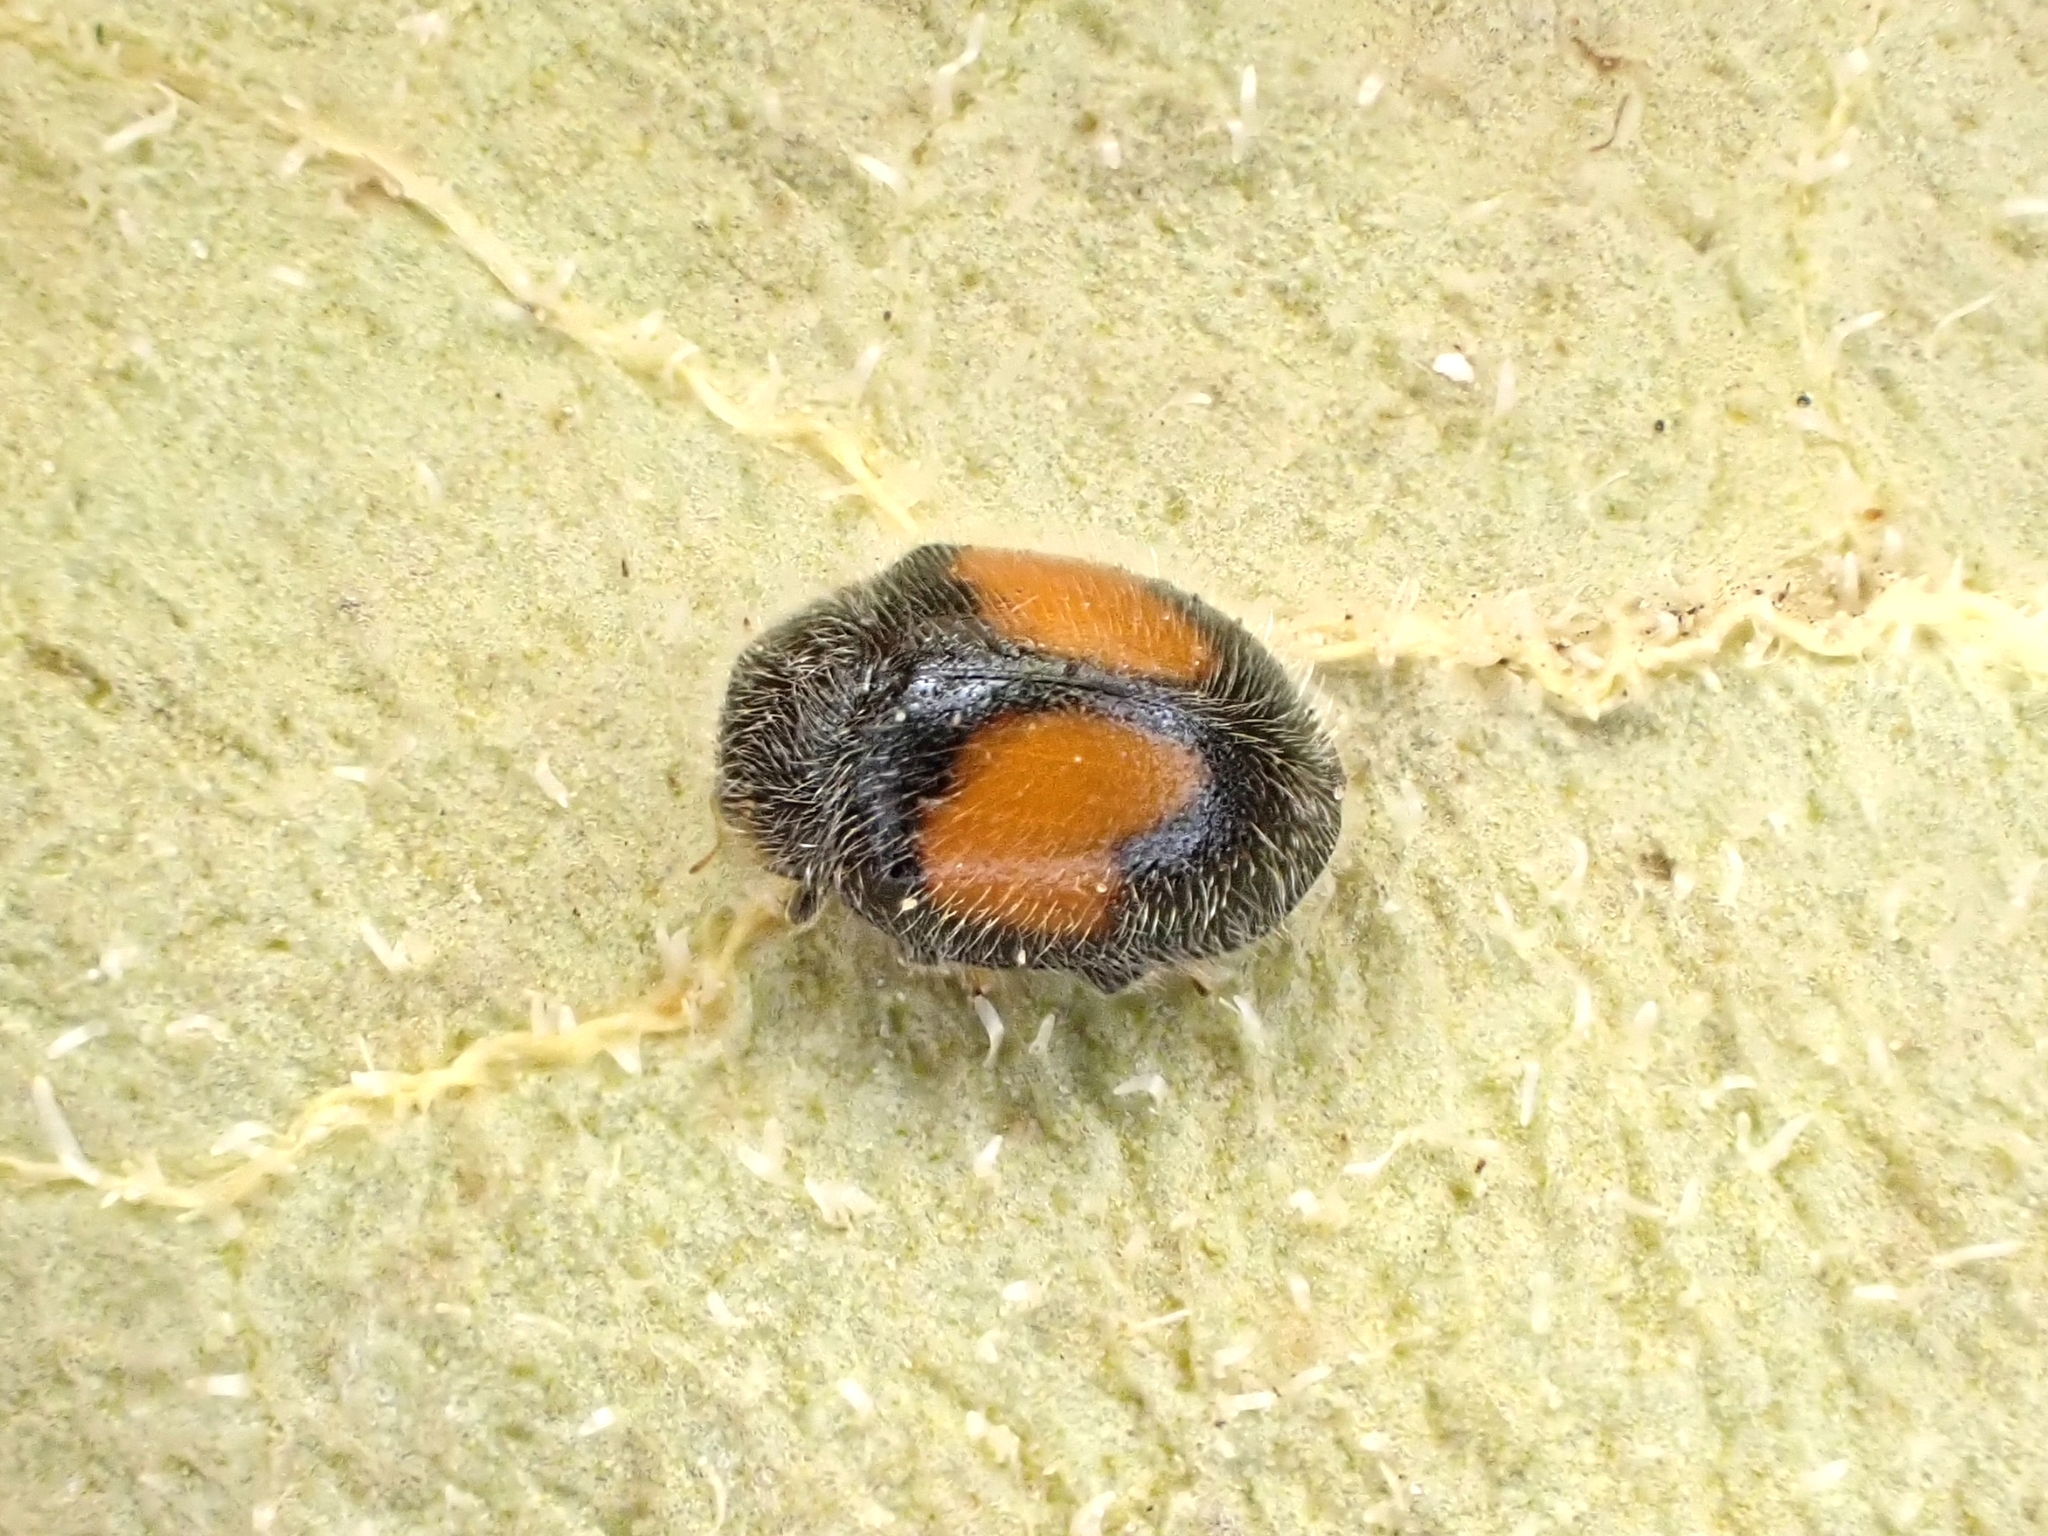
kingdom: Animalia
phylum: Arthropoda
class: Insecta
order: Coleoptera
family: Coccinellidae
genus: Scymnus
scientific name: Scymnus notescens
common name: Minute two-spotted ladybird beetle
